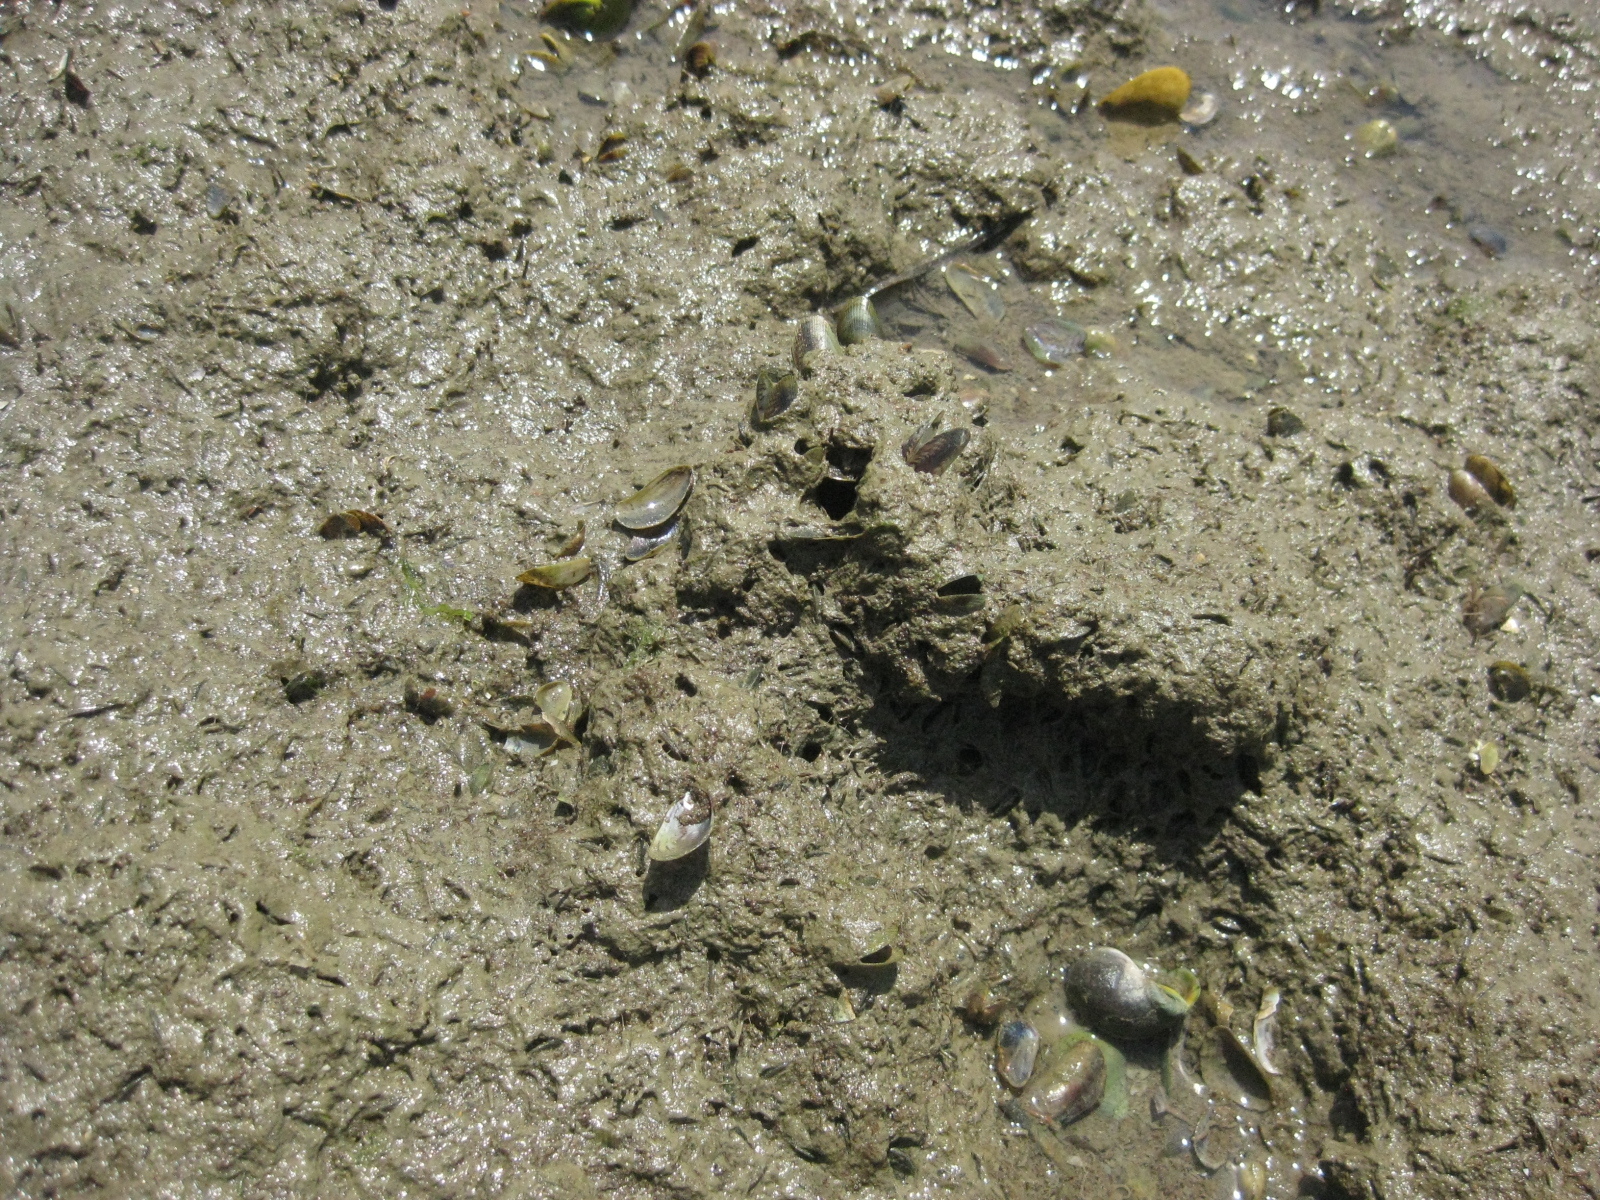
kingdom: Animalia
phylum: Mollusca
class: Bivalvia
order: Mytilida
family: Mytilidae
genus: Arcuatula
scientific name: Arcuatula senhousia
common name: Asian mussel
